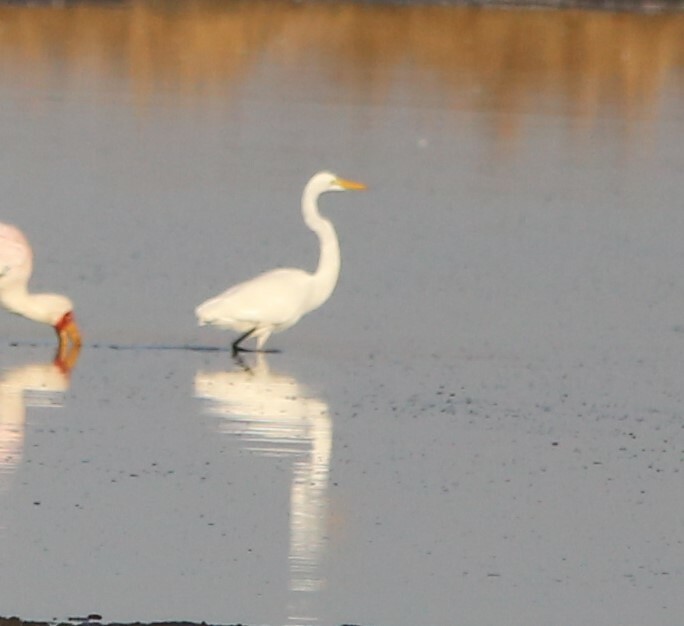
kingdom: Animalia
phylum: Chordata
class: Aves
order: Pelecaniformes
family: Ardeidae
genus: Ardea
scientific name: Ardea alba
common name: Great egret
